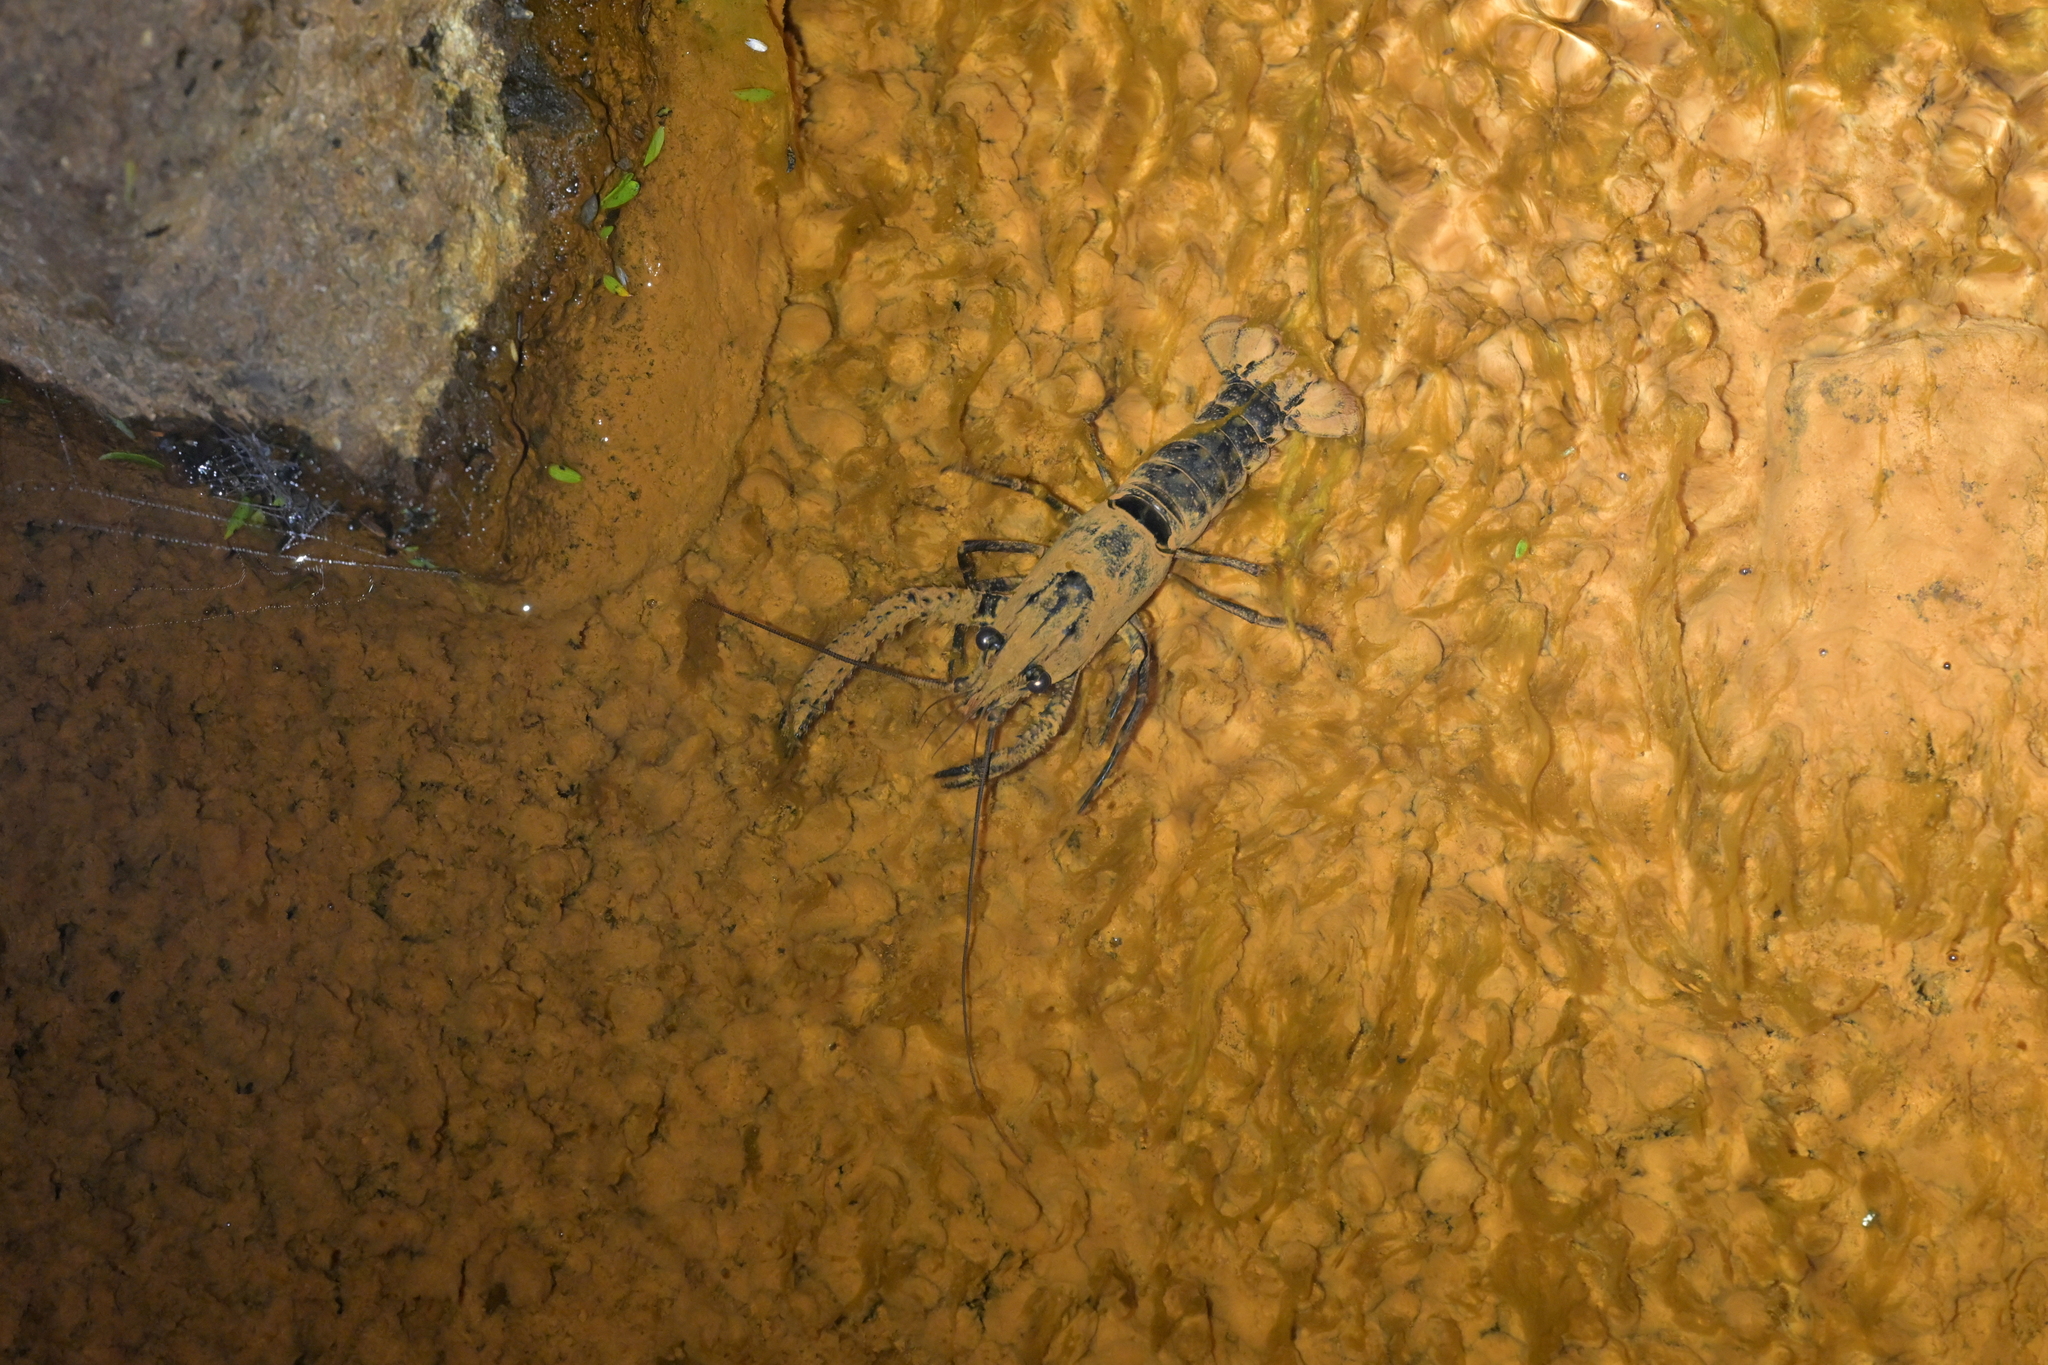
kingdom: Animalia
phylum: Arthropoda
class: Malacostraca
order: Decapoda
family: Parastacidae
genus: Paranephrops
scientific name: Paranephrops planifrons
